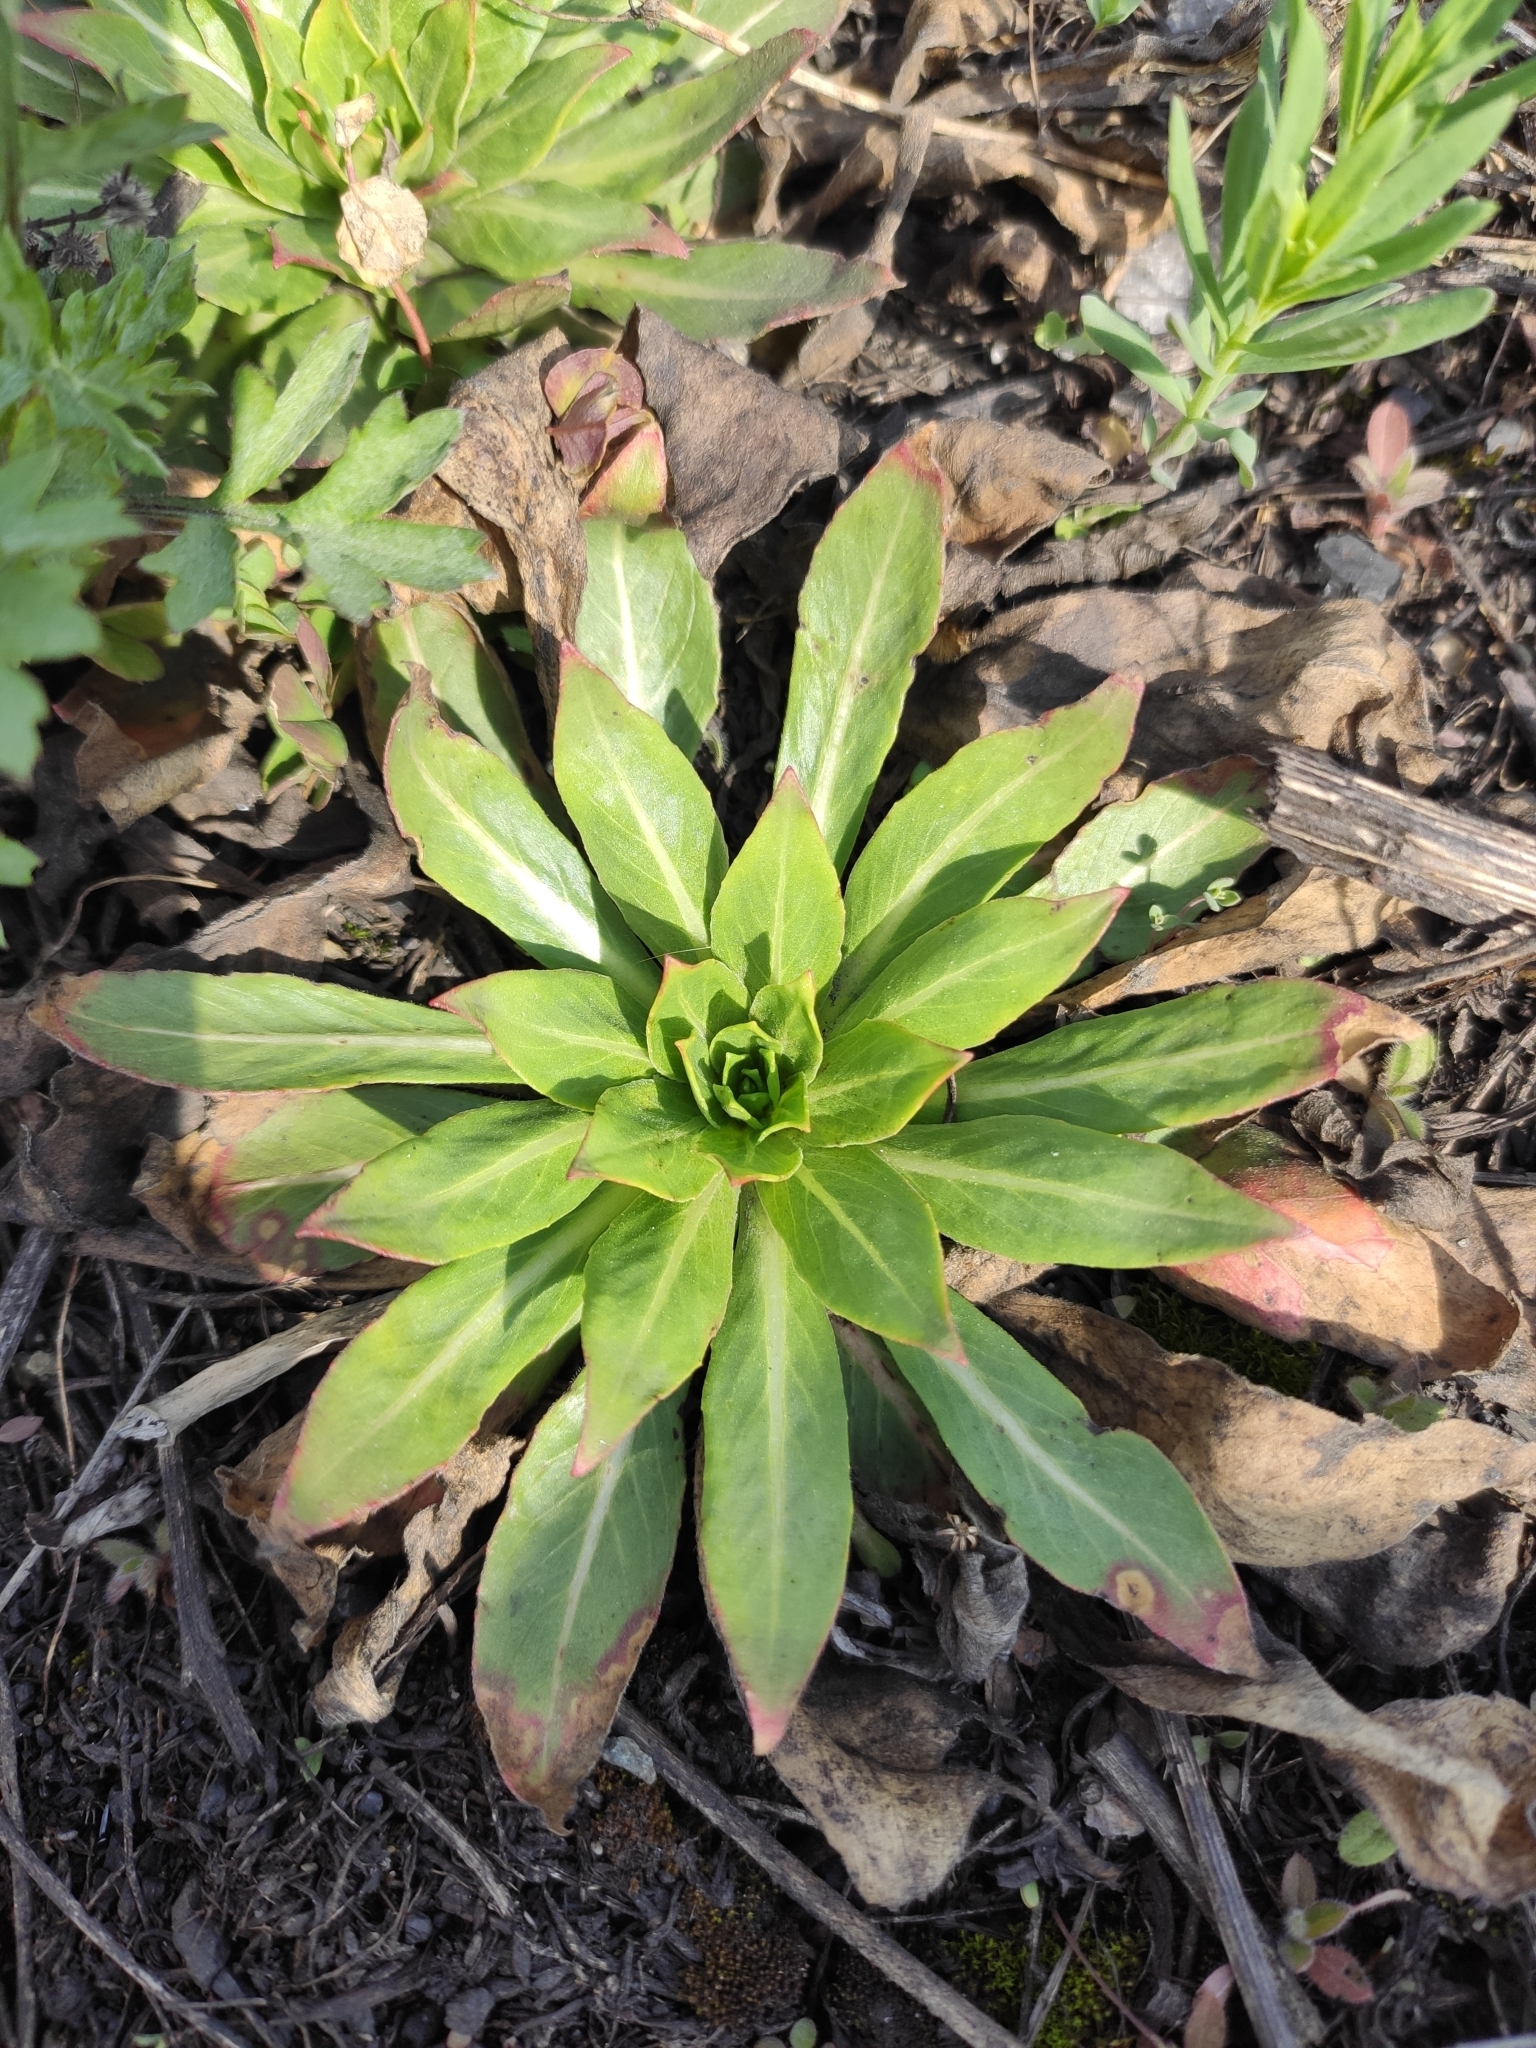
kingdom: Plantae
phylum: Tracheophyta
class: Magnoliopsida
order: Myrtales
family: Onagraceae
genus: Oenothera
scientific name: Oenothera
